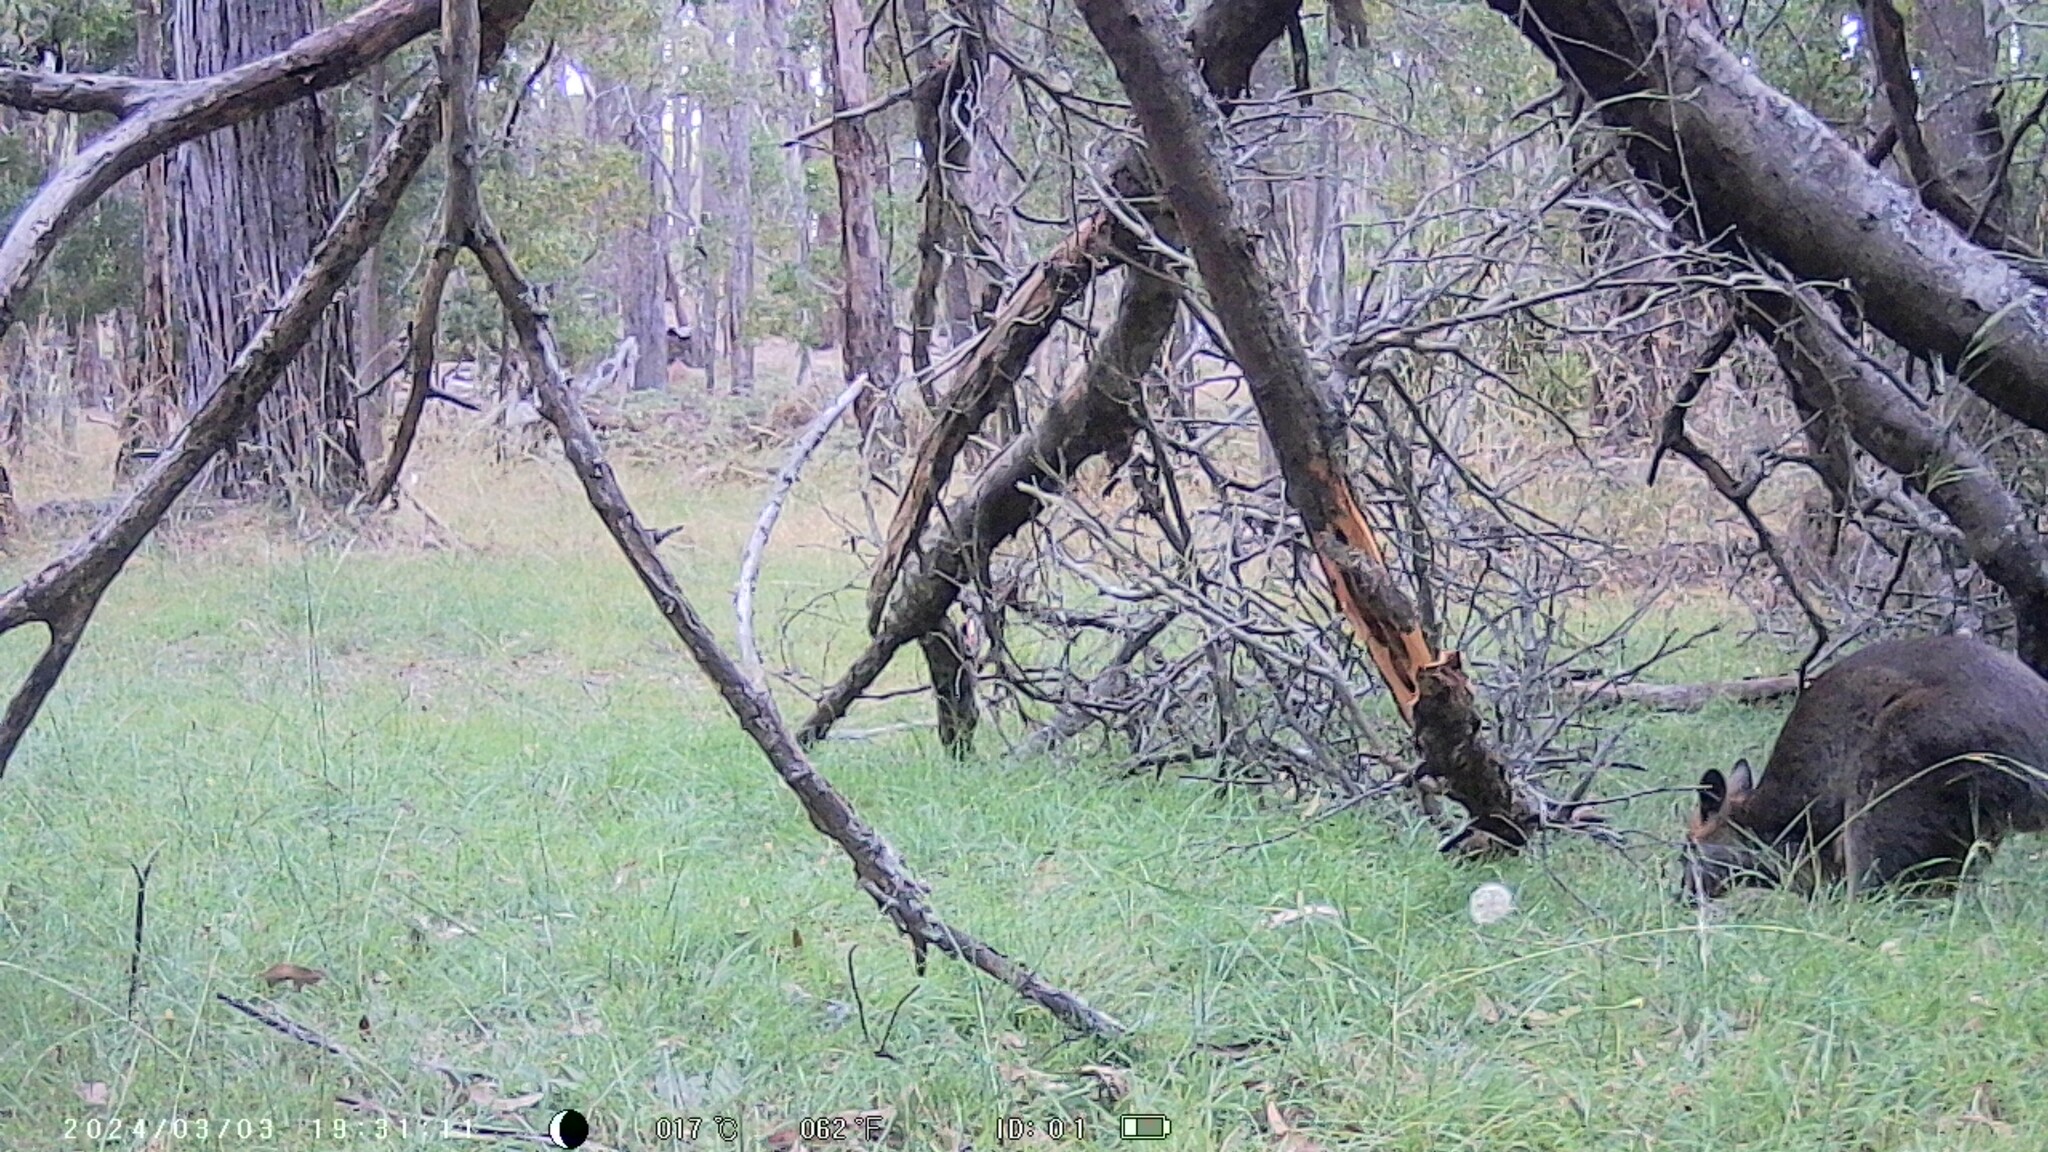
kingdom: Animalia
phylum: Chordata
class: Mammalia
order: Diprotodontia
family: Macropodidae
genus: Wallabia
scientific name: Wallabia bicolor
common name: Swamp wallaby
